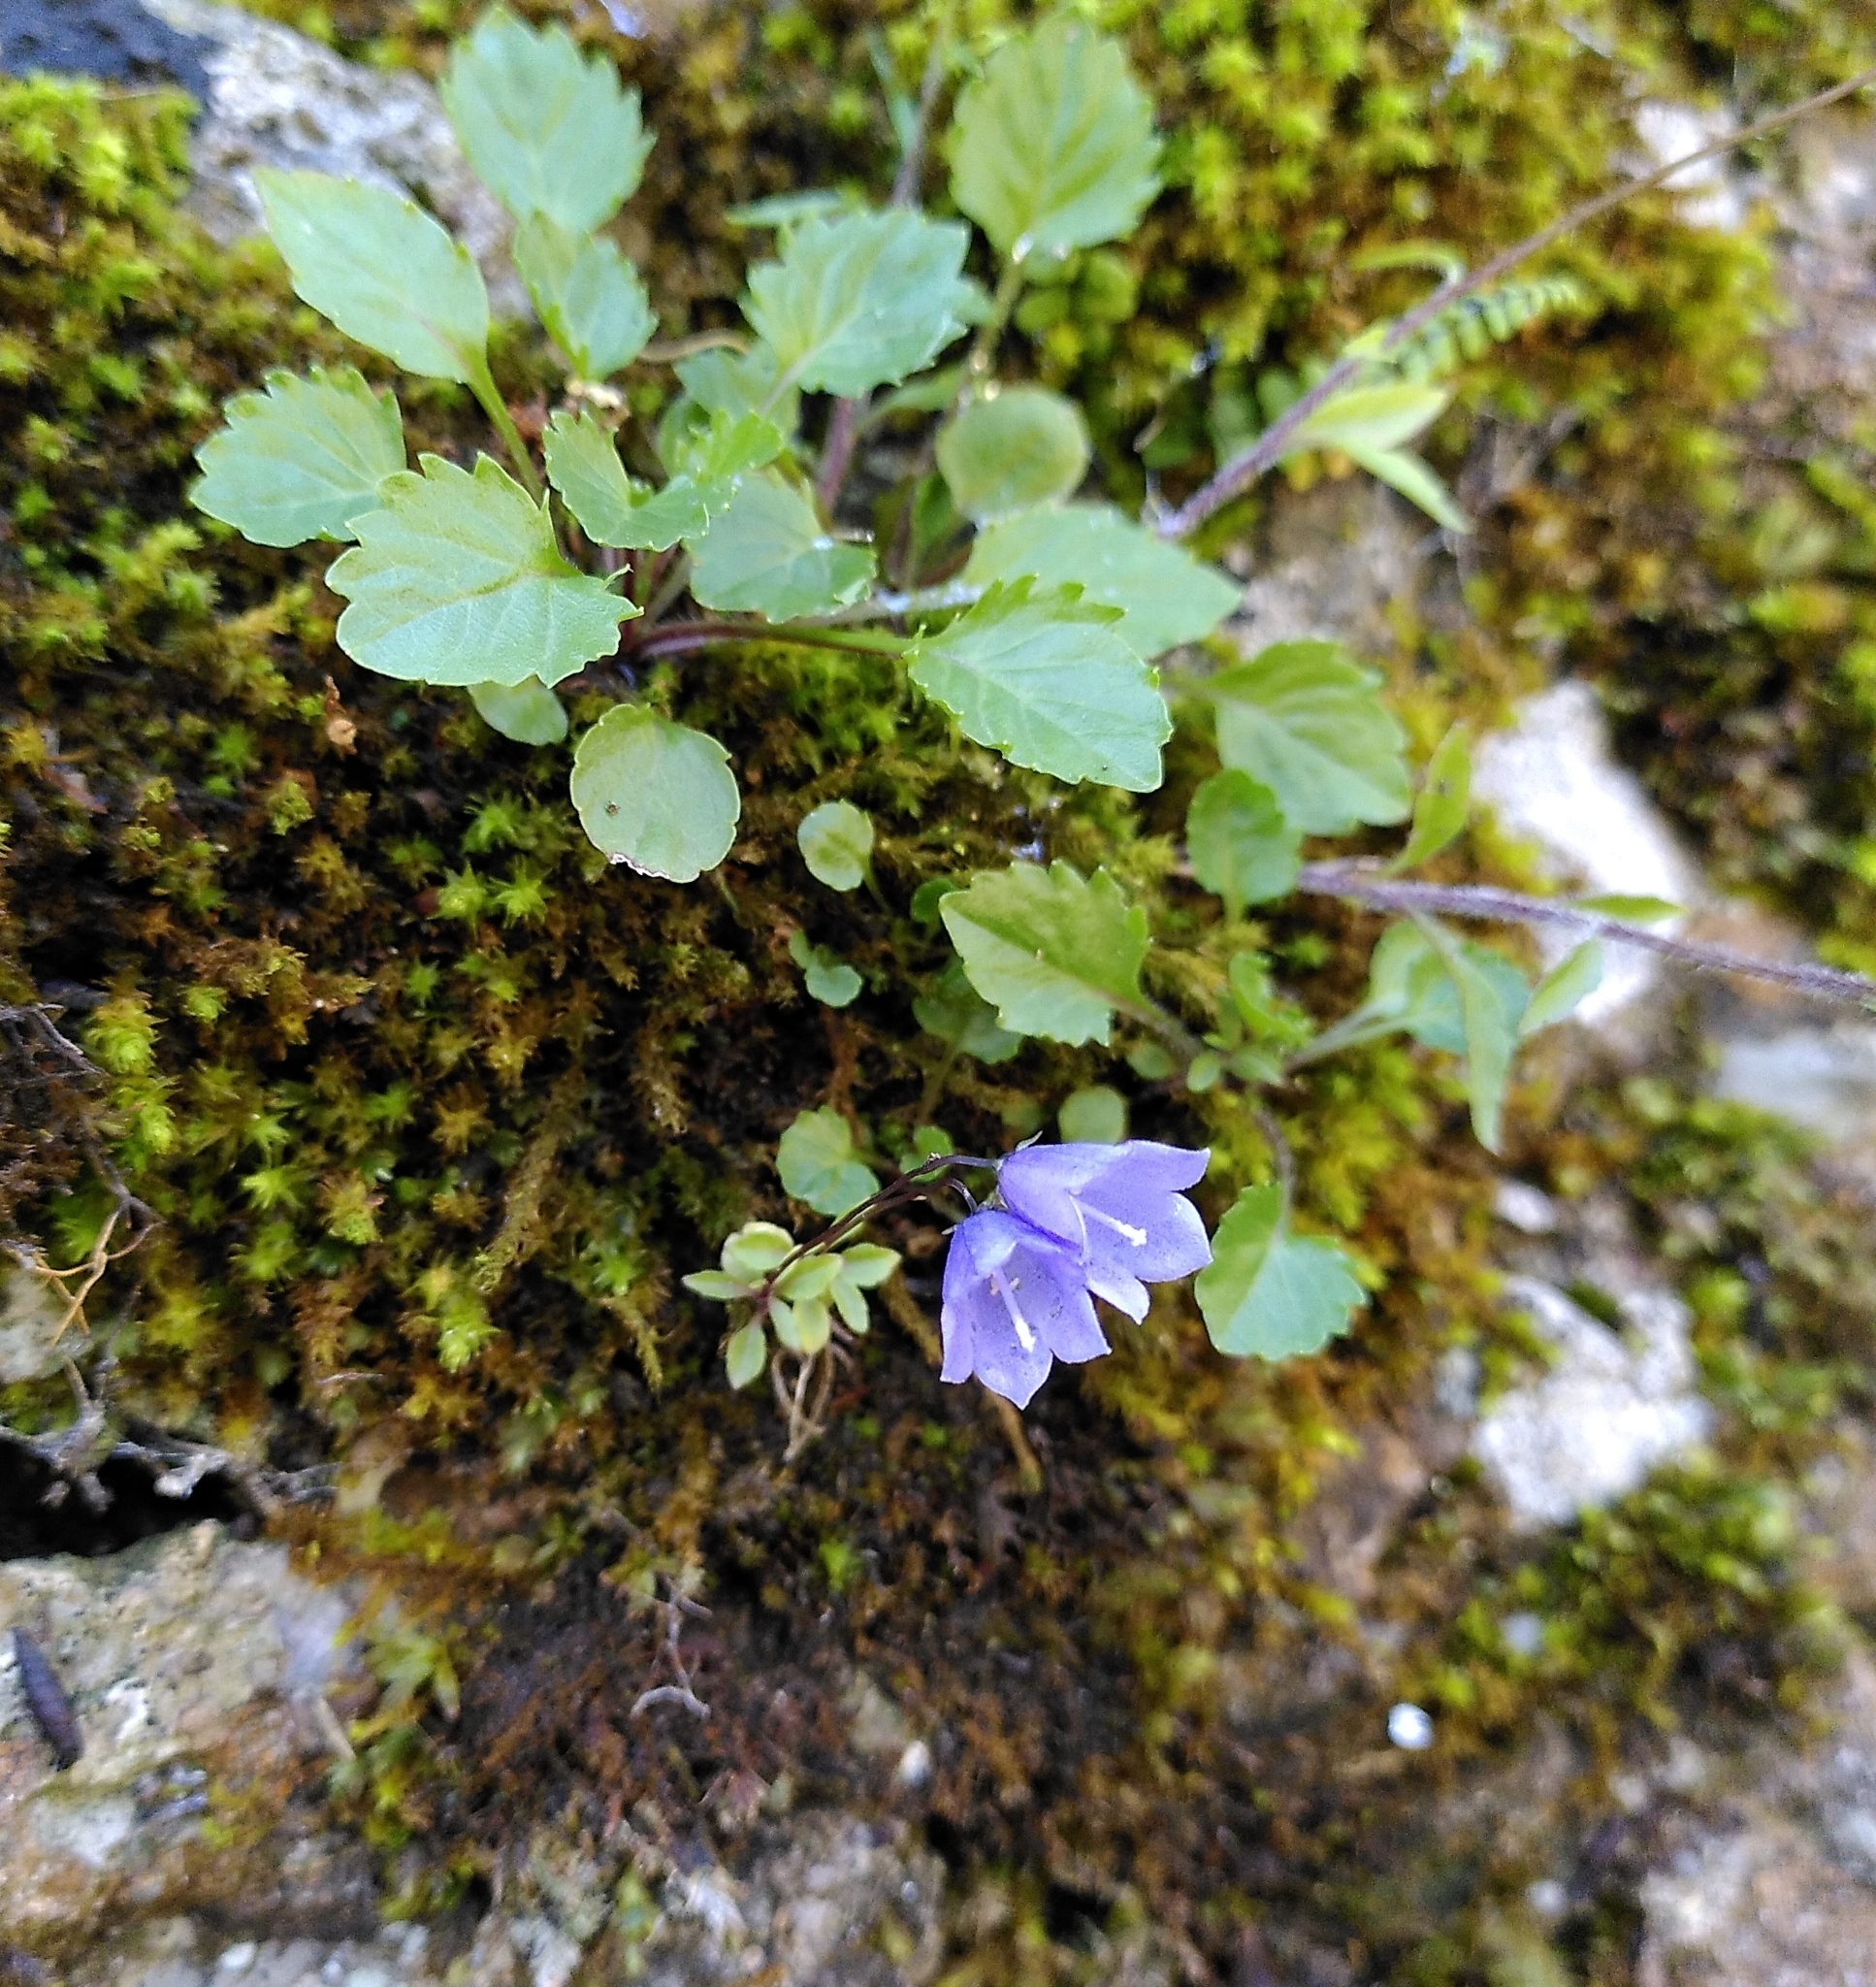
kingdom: Plantae
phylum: Tracheophyta
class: Magnoliopsida
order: Asterales
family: Campanulaceae
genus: Campanula
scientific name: Campanula cochleariifolia
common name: Fairies'-thimbles
